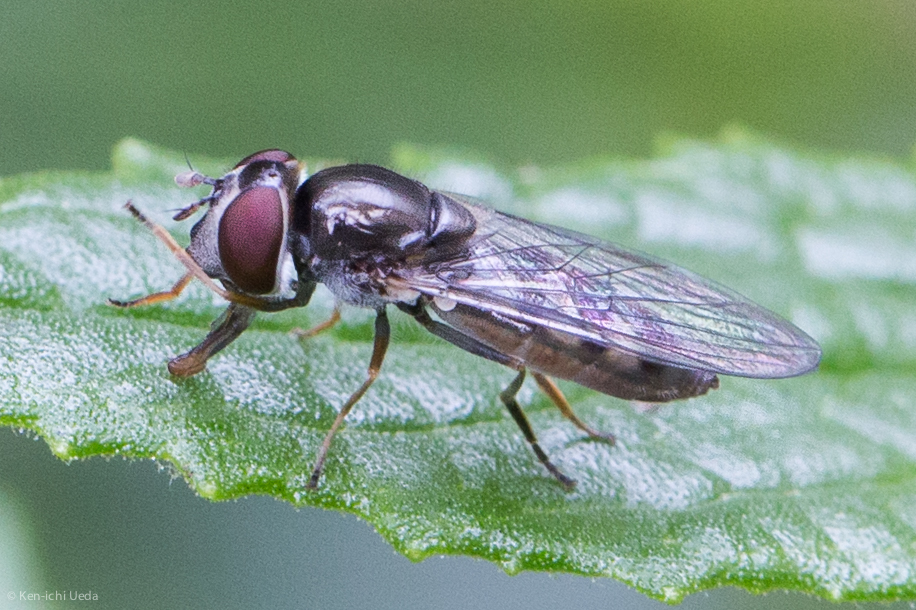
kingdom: Animalia
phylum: Arthropoda
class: Insecta
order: Diptera
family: Syrphidae
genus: Platycheirus
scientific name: Platycheirus trichopus
